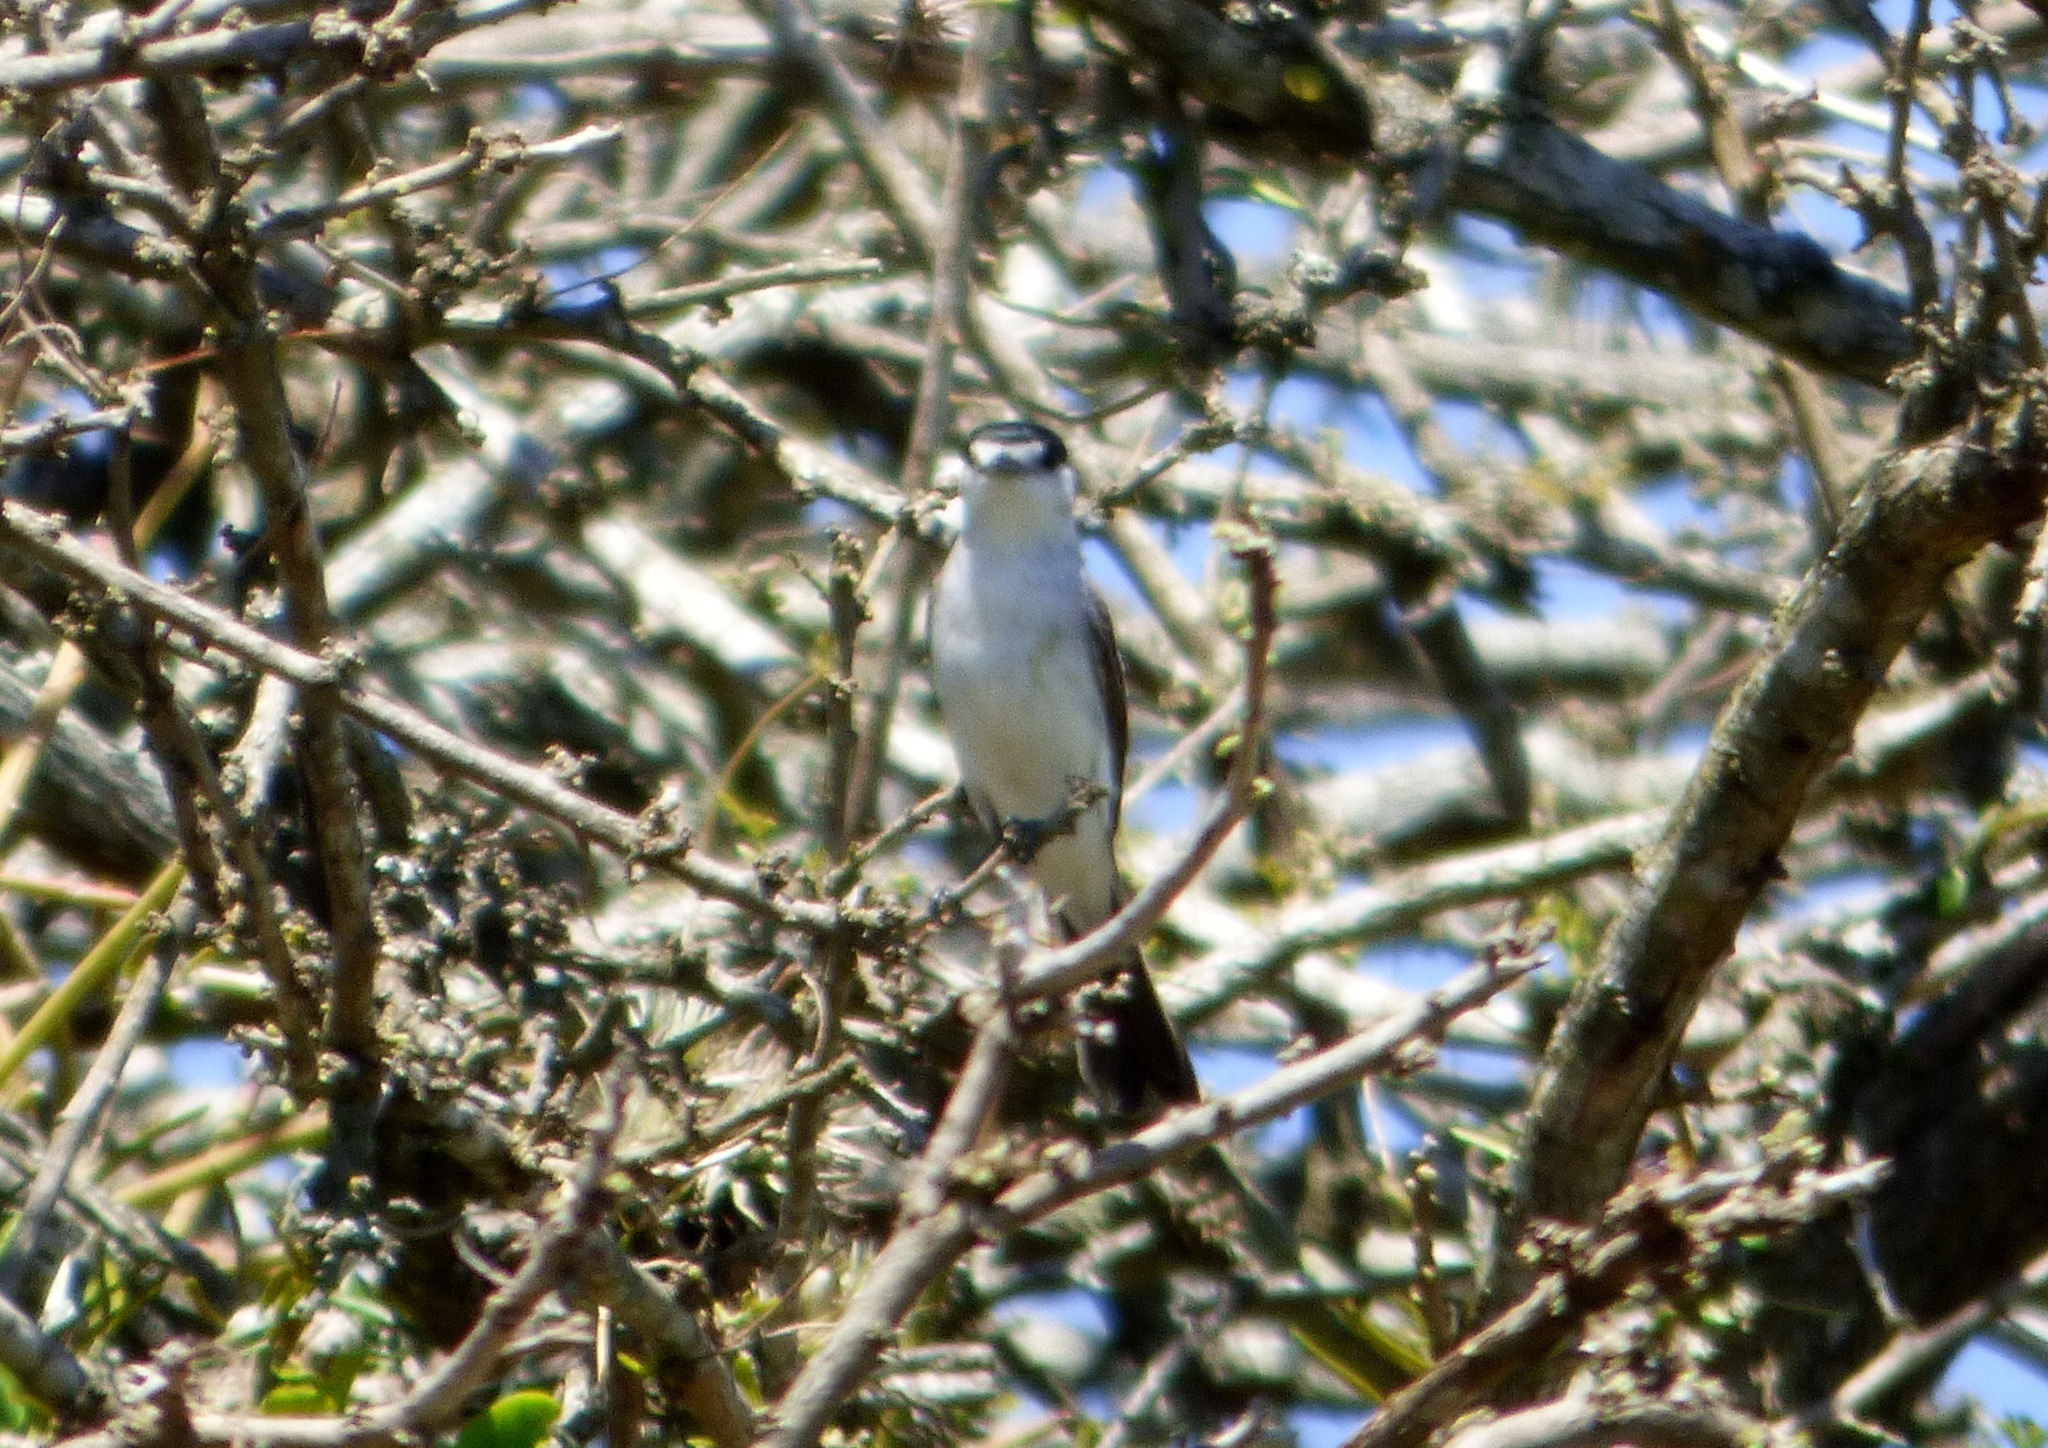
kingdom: Animalia
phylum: Chordata
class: Aves
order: Passeriformes
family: Cotingidae
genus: Xenopsaris
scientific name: Xenopsaris albinucha
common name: White-naped xenopsaris
